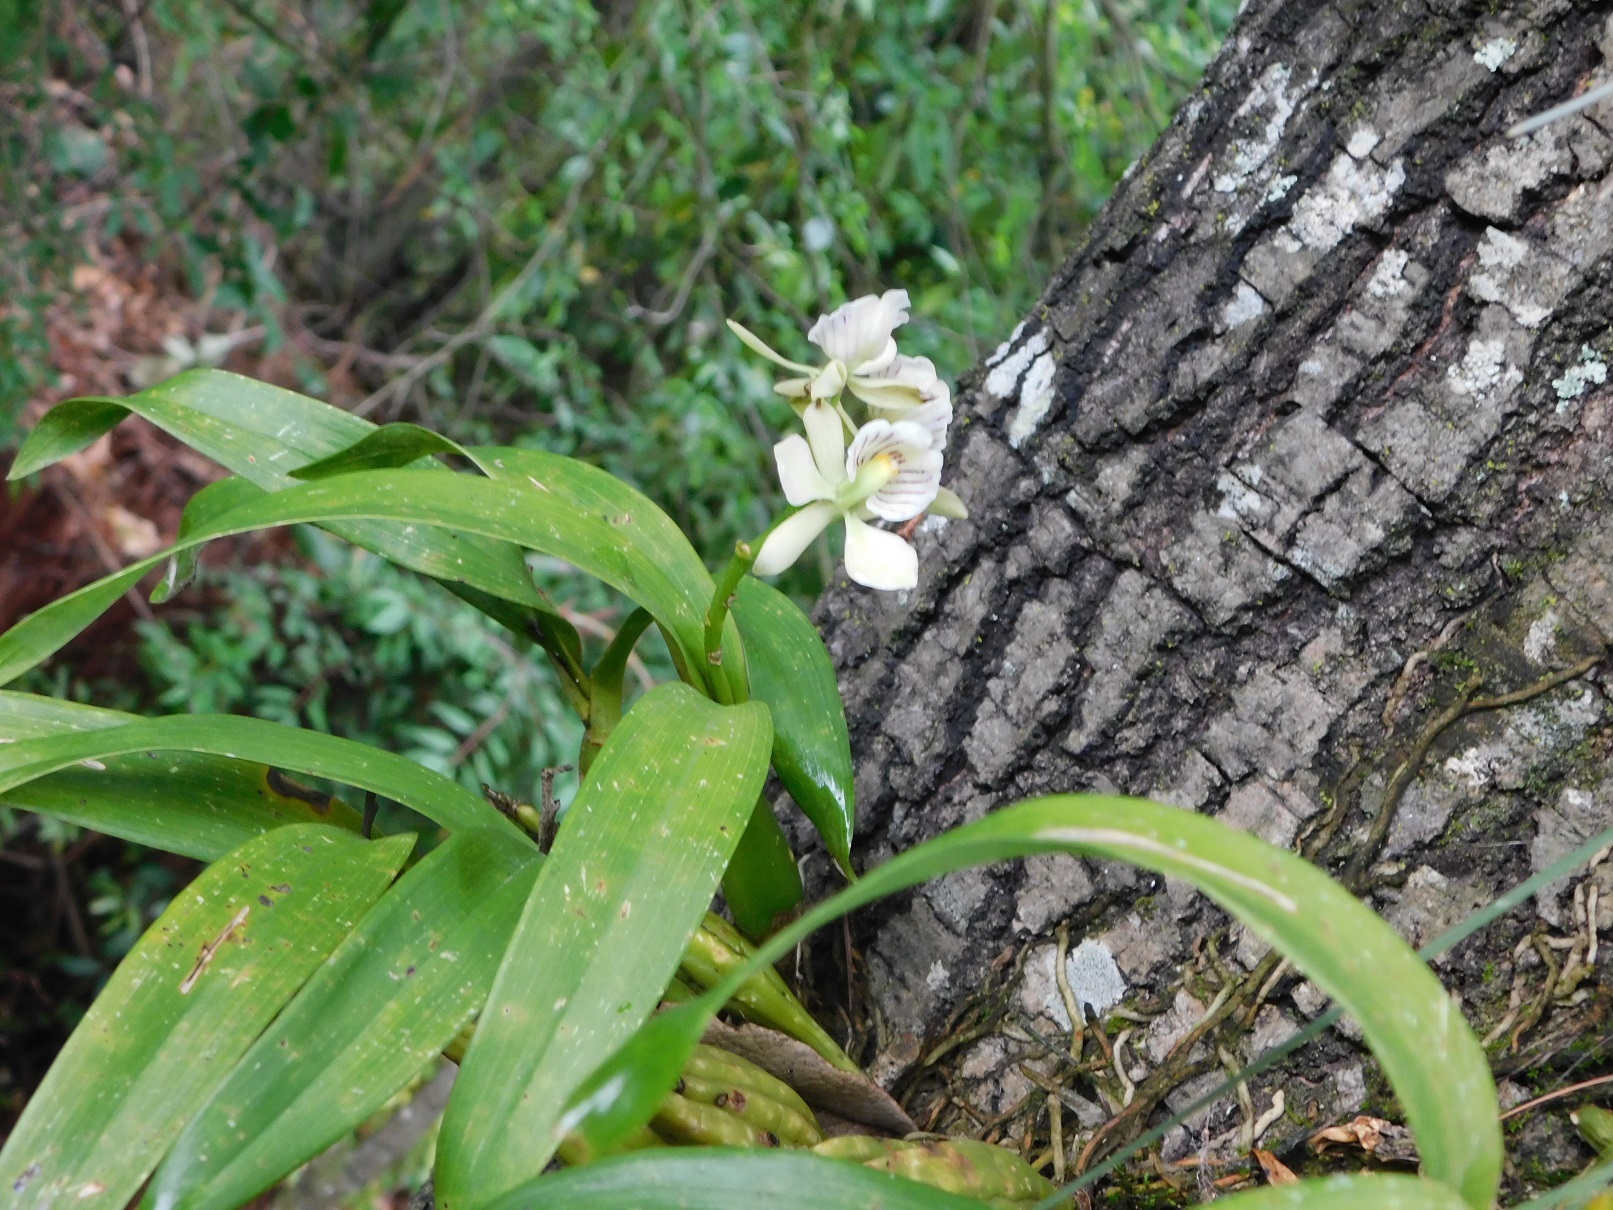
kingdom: Plantae
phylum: Tracheophyta
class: Liliopsida
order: Asparagales
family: Orchidaceae
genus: Prosthechea
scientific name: Prosthechea radiata
